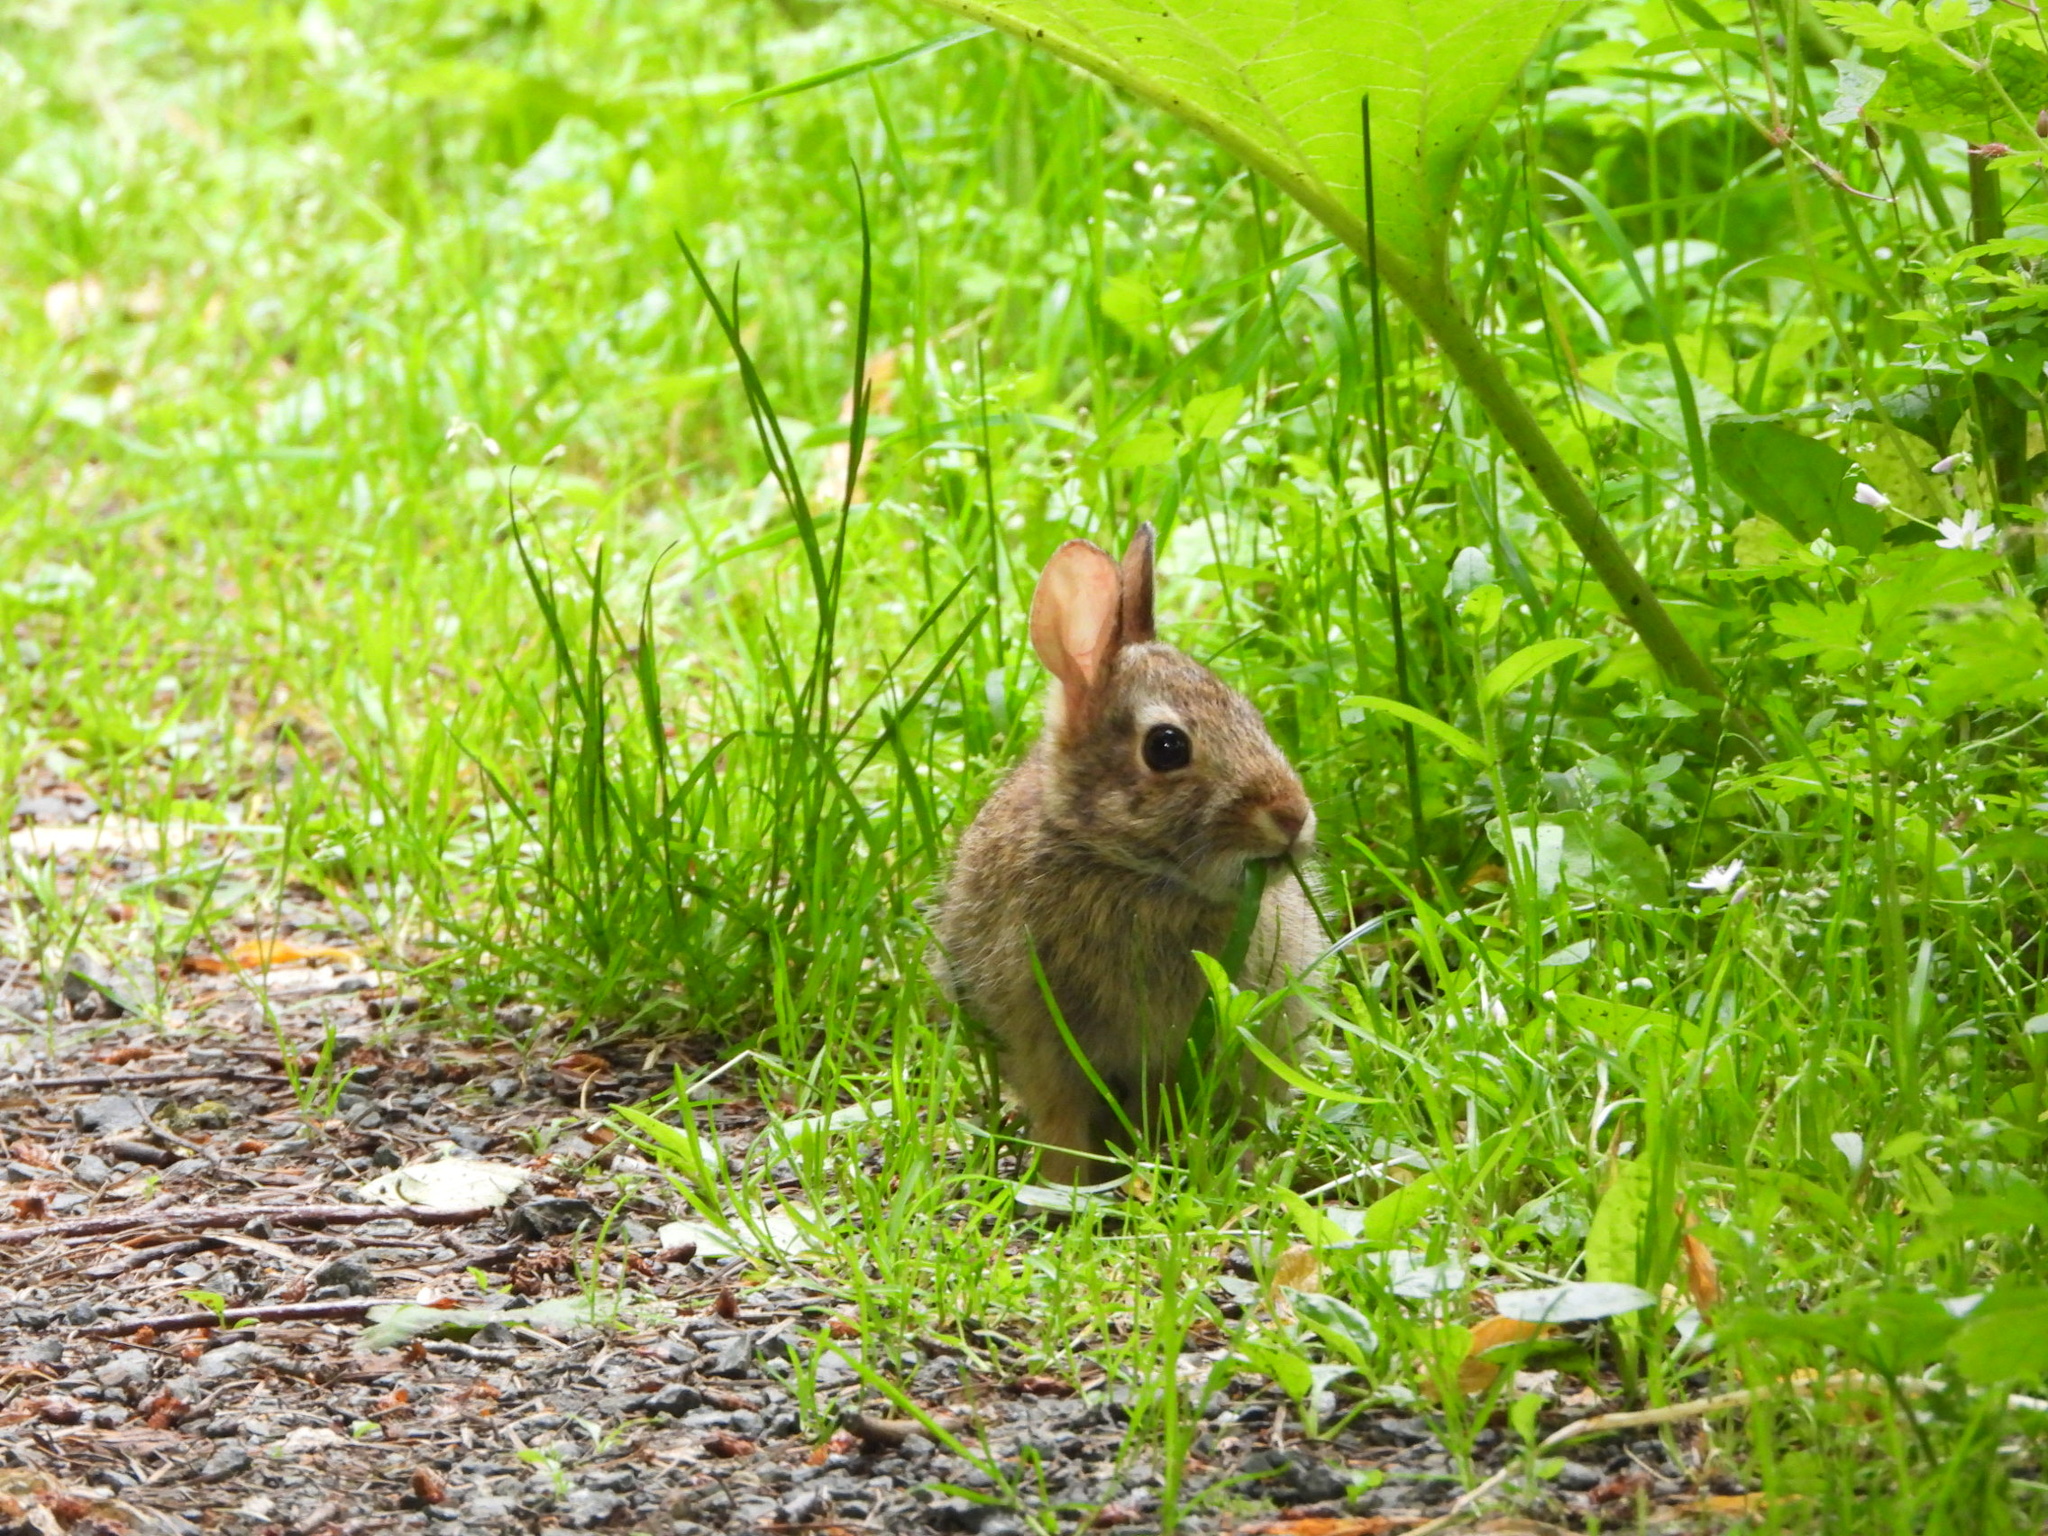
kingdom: Animalia
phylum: Chordata
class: Mammalia
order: Lagomorpha
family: Leporidae
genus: Sylvilagus
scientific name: Sylvilagus floridanus
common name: Eastern cottontail
